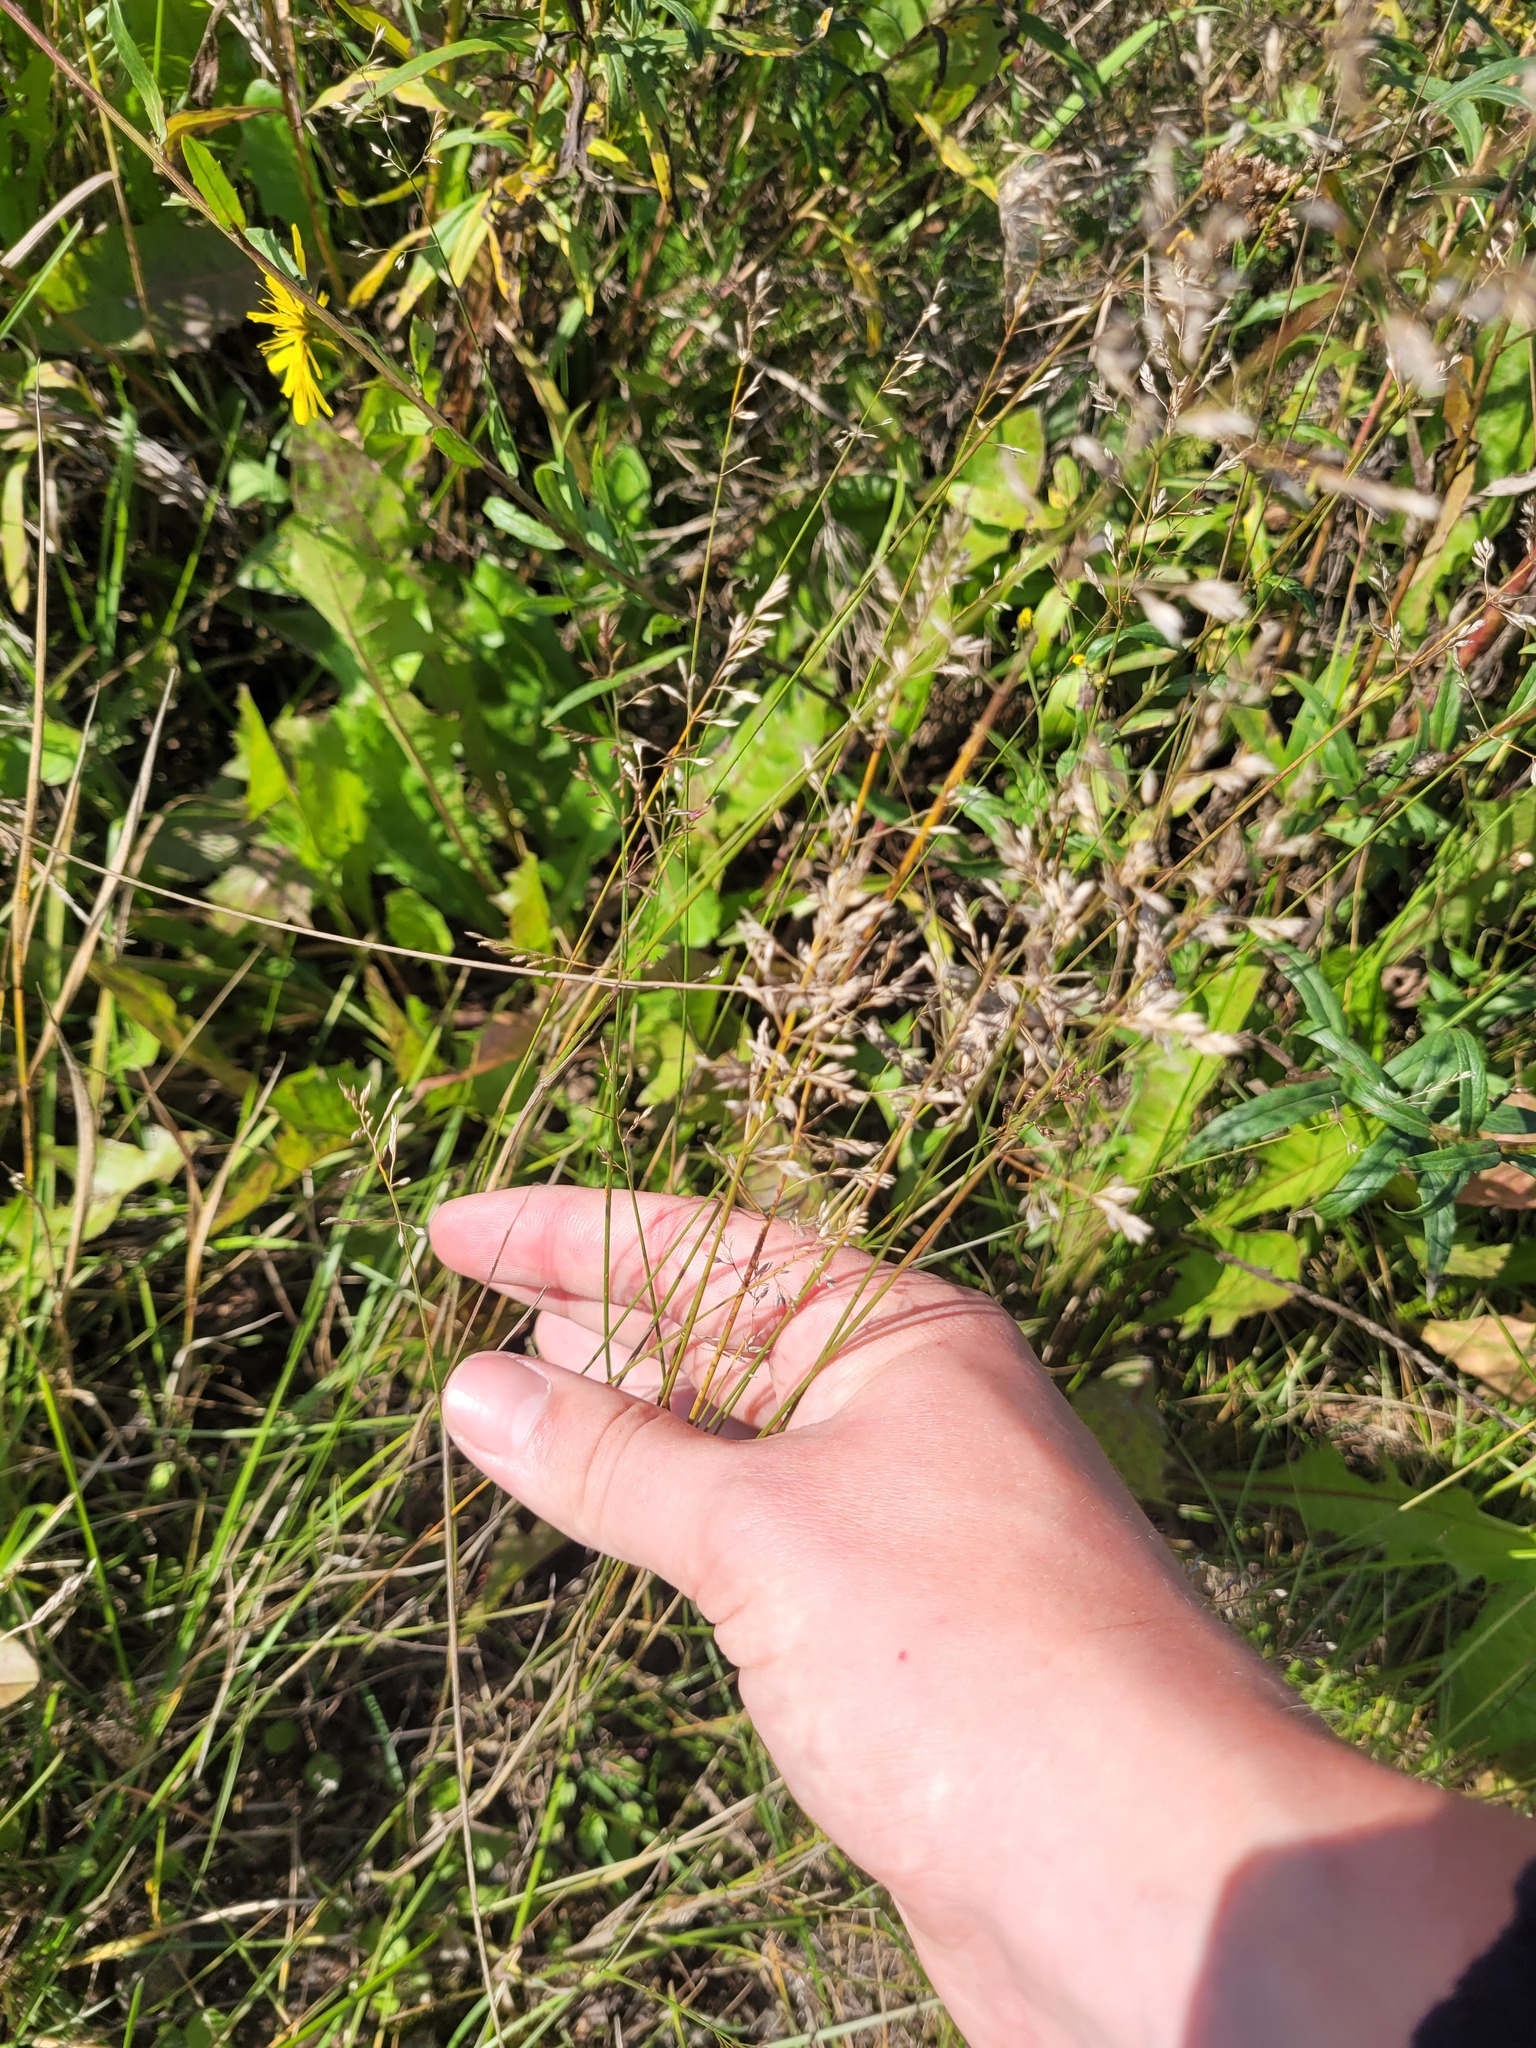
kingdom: Plantae
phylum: Tracheophyta
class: Liliopsida
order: Poales
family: Poaceae
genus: Poa
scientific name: Poa compressa
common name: Canada bluegrass
